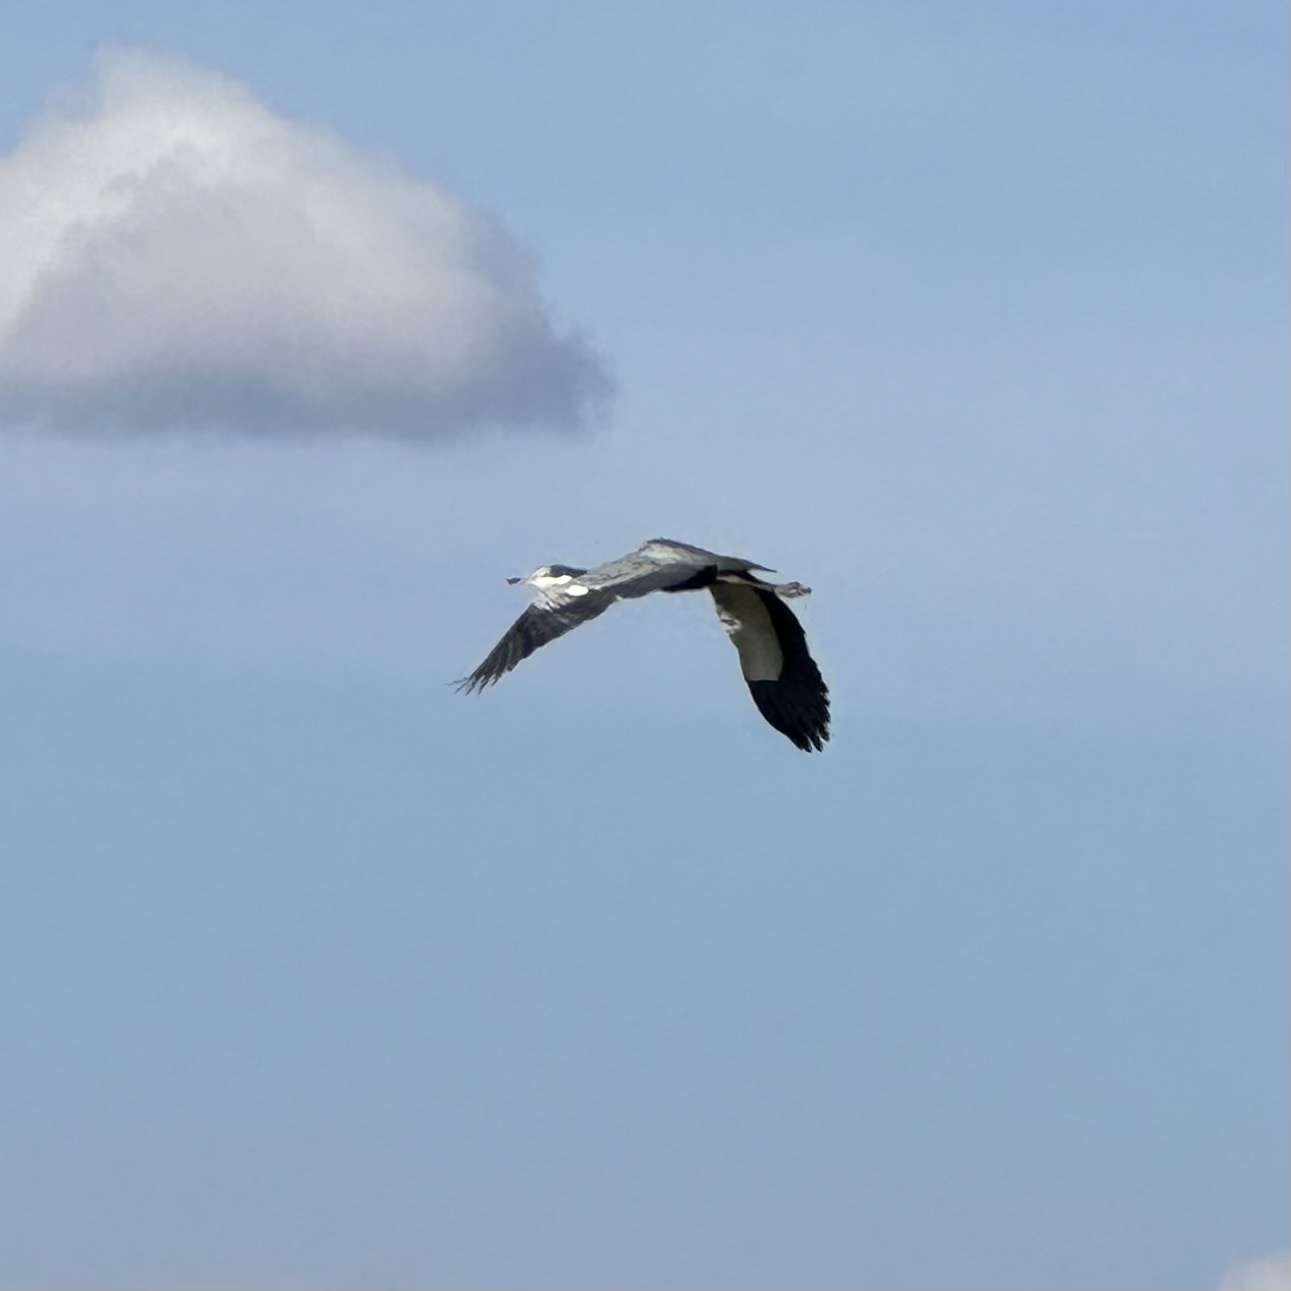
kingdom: Animalia
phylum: Chordata
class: Aves
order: Pelecaniformes
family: Ardeidae
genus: Ardea
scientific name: Ardea melanocephala
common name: Black-headed heron
